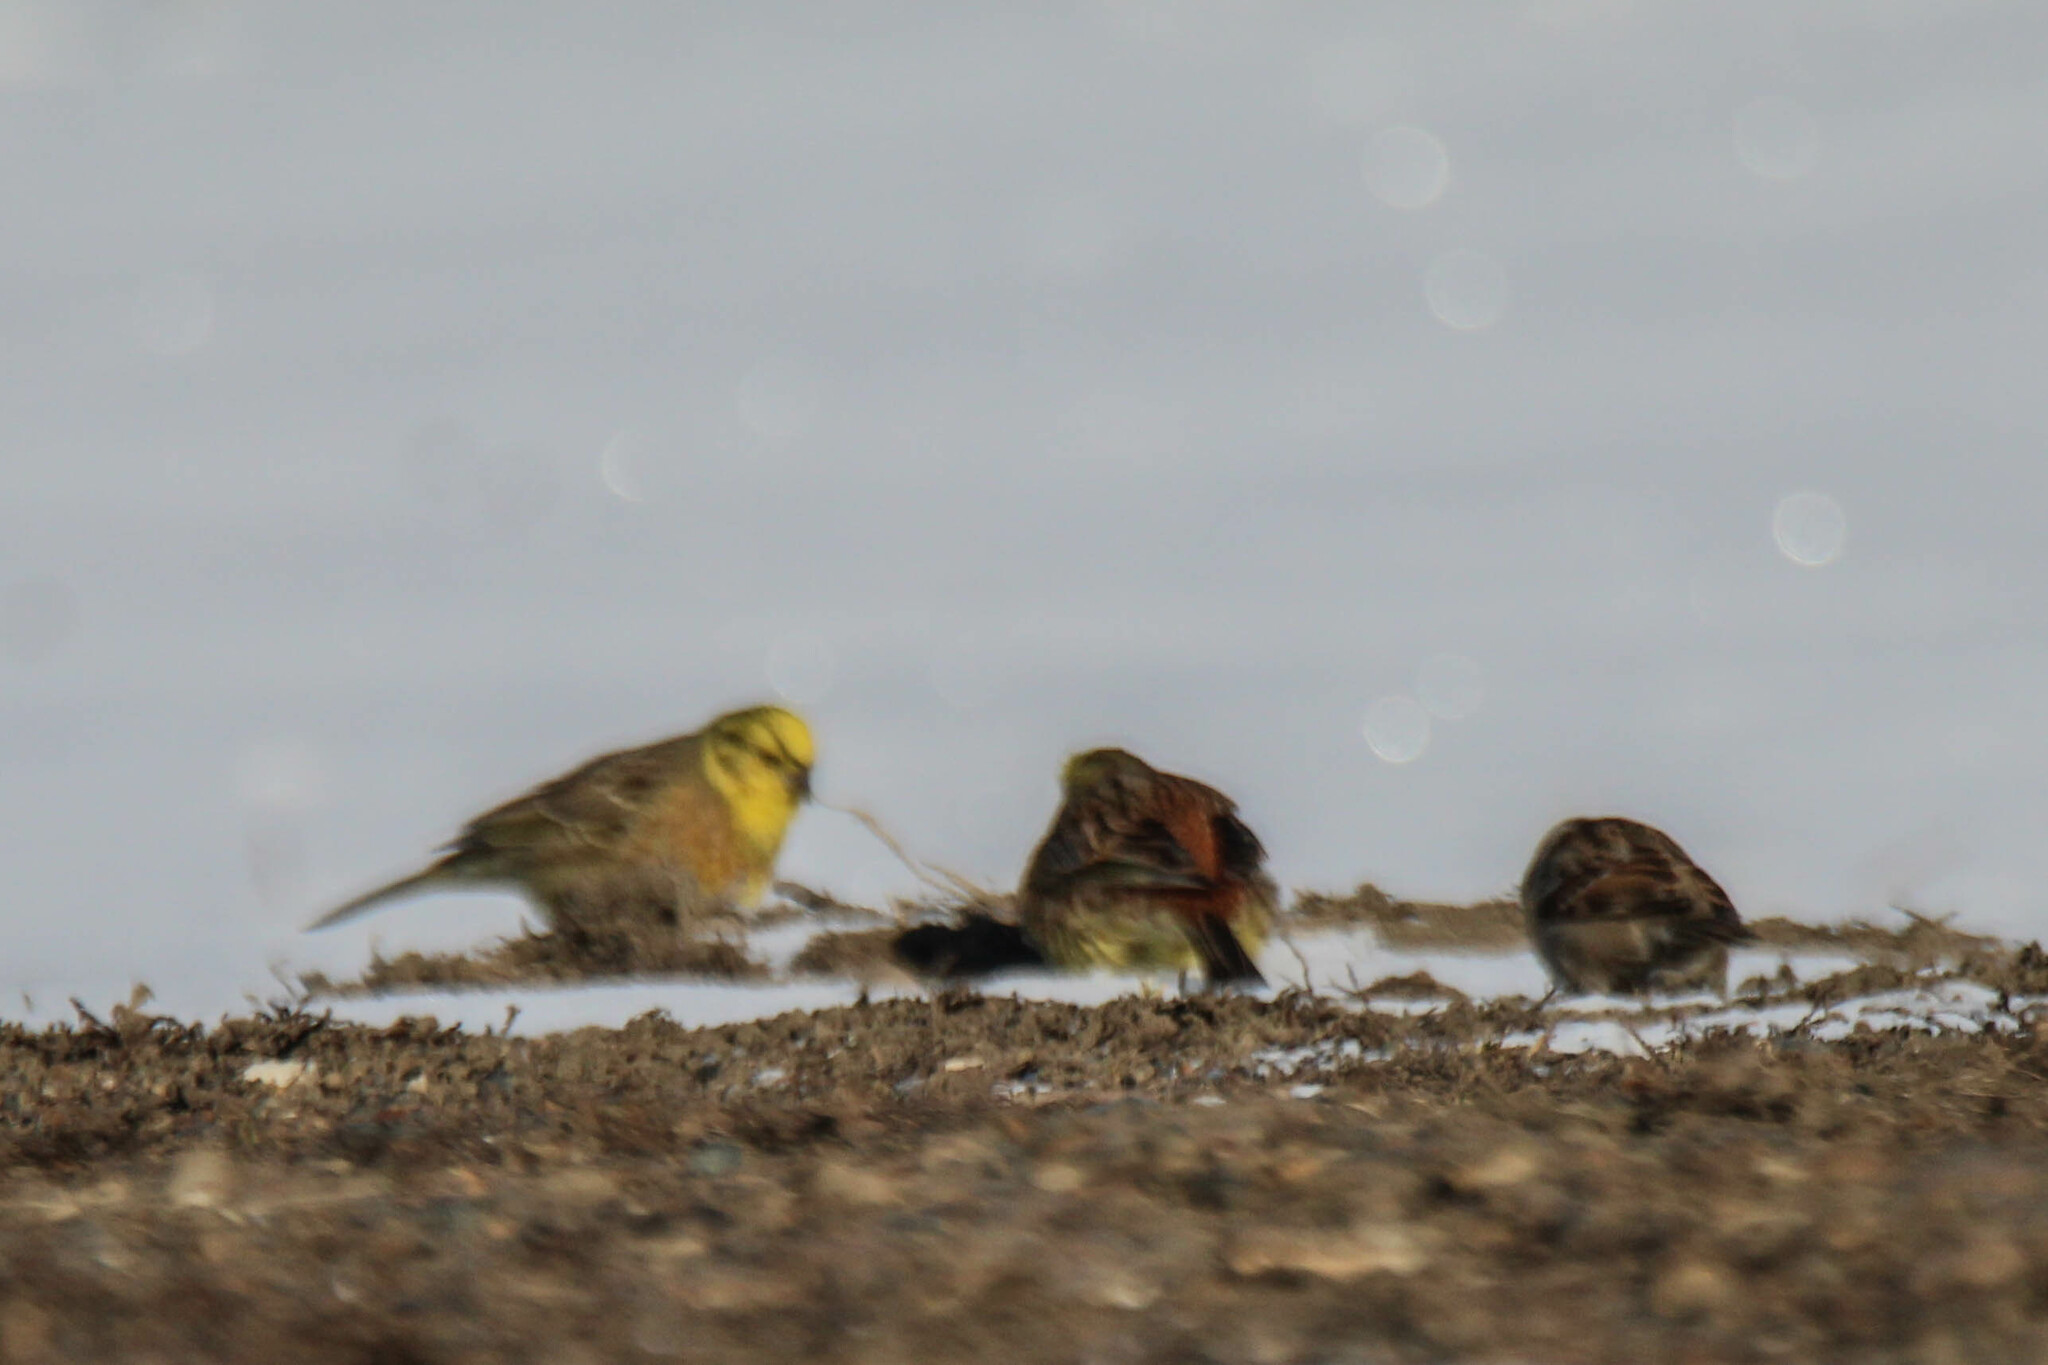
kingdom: Animalia
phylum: Chordata
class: Aves
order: Passeriformes
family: Emberizidae
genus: Emberiza
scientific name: Emberiza citrinella
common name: Yellowhammer
